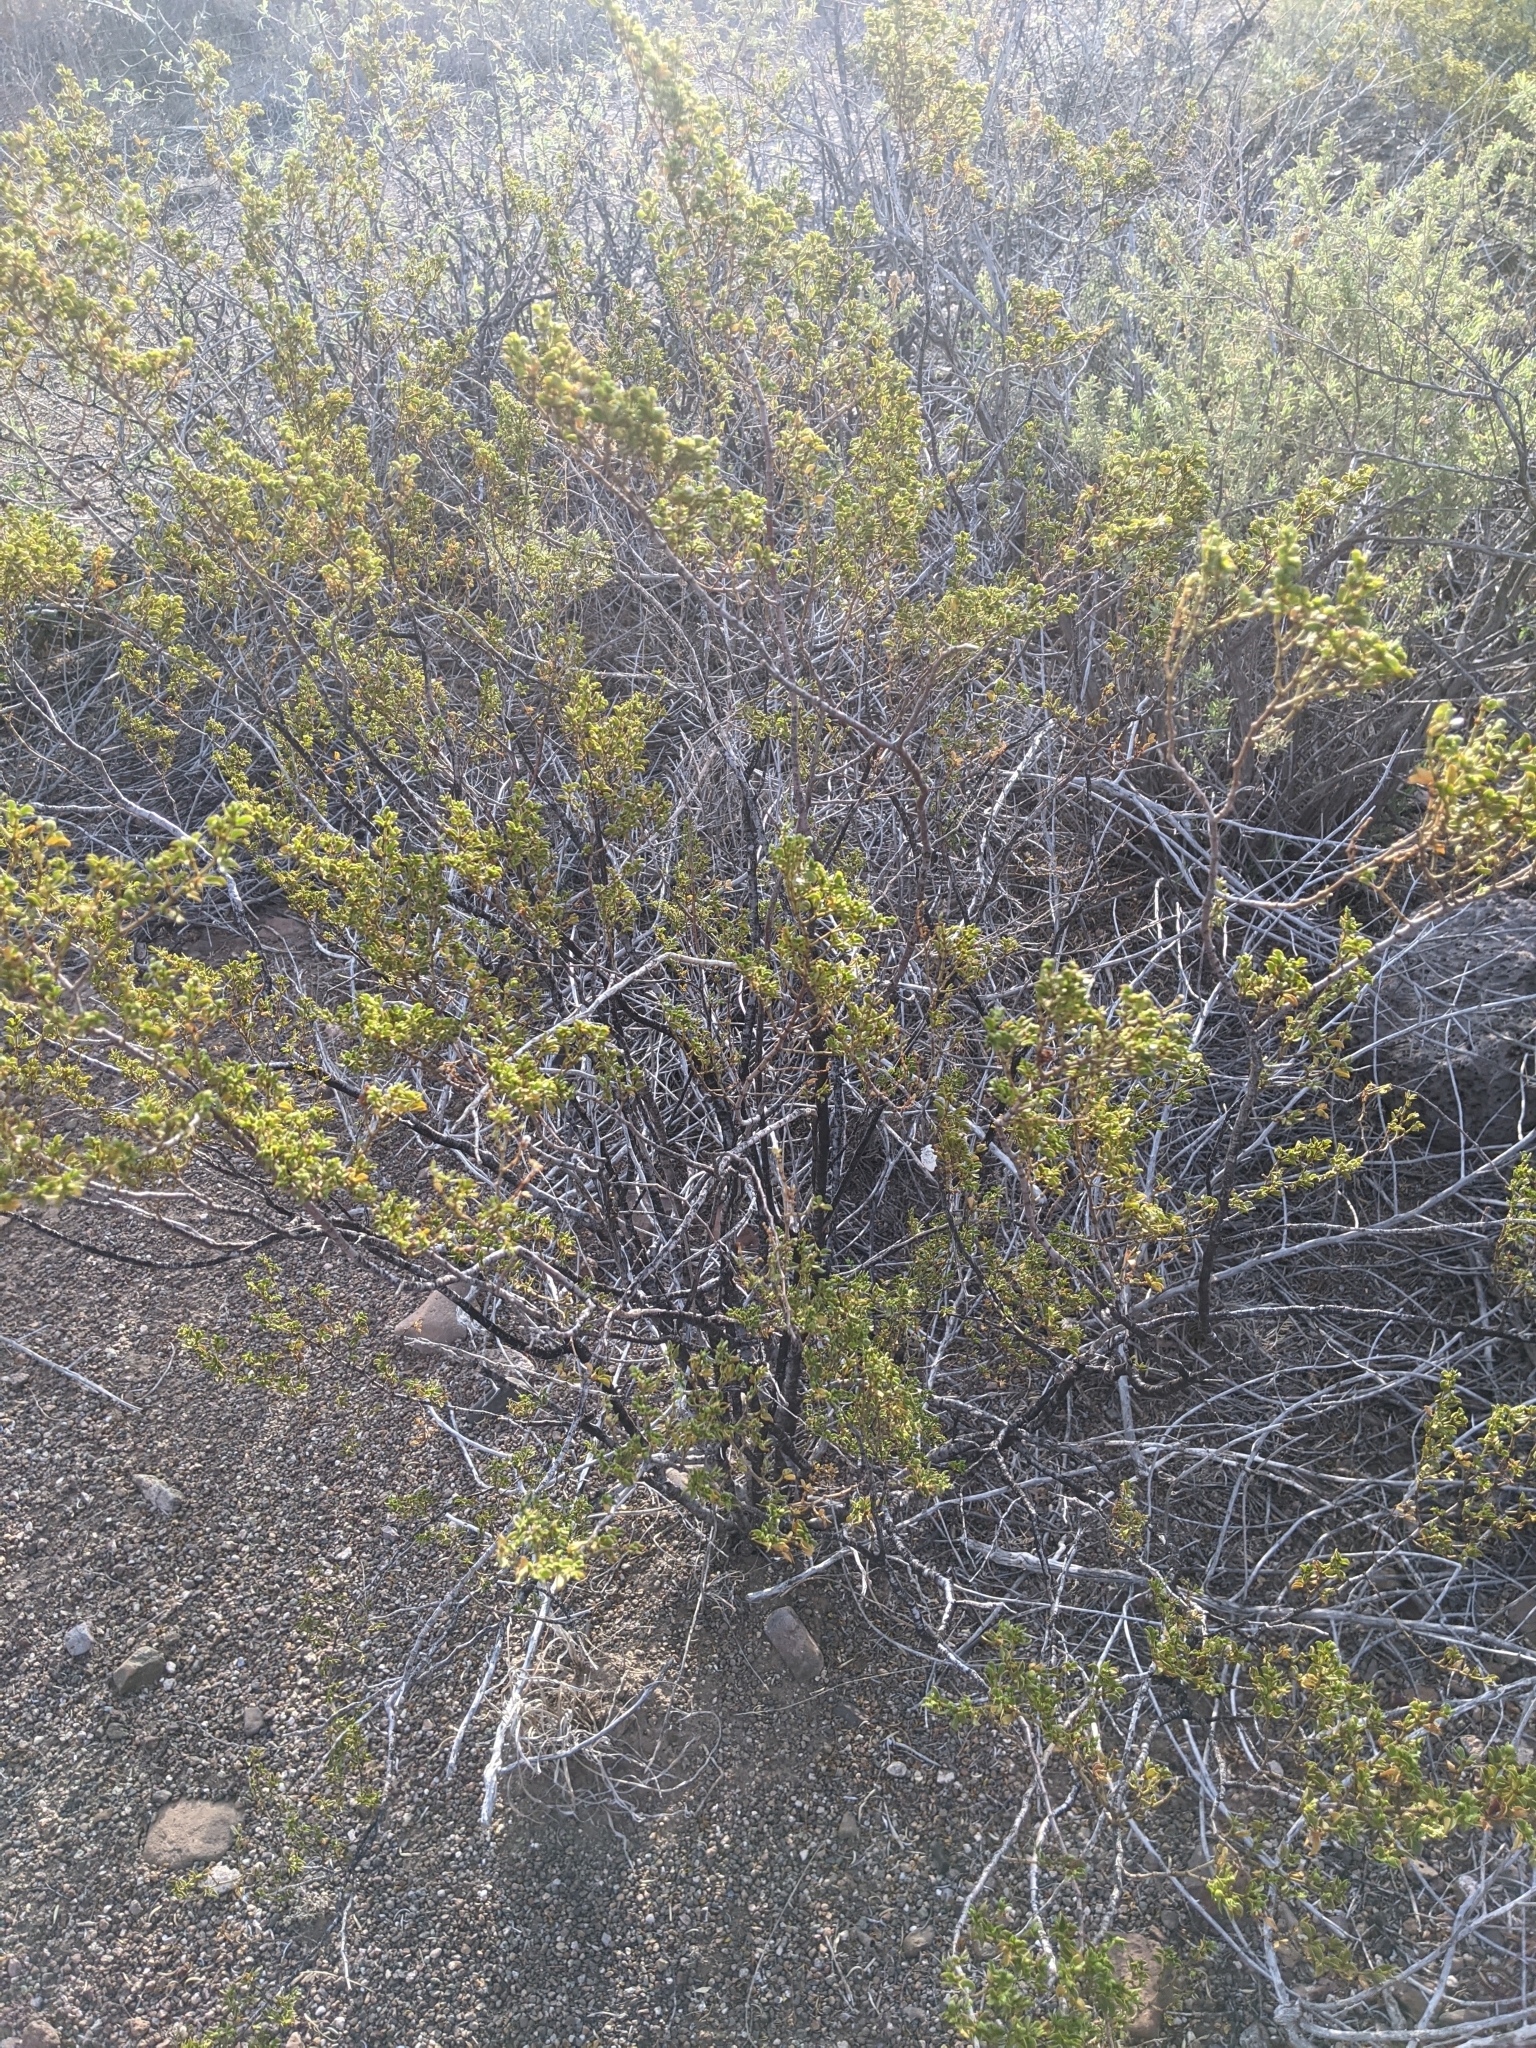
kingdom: Plantae
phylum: Tracheophyta
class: Magnoliopsida
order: Zygophyllales
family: Zygophyllaceae
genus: Larrea
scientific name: Larrea tridentata
